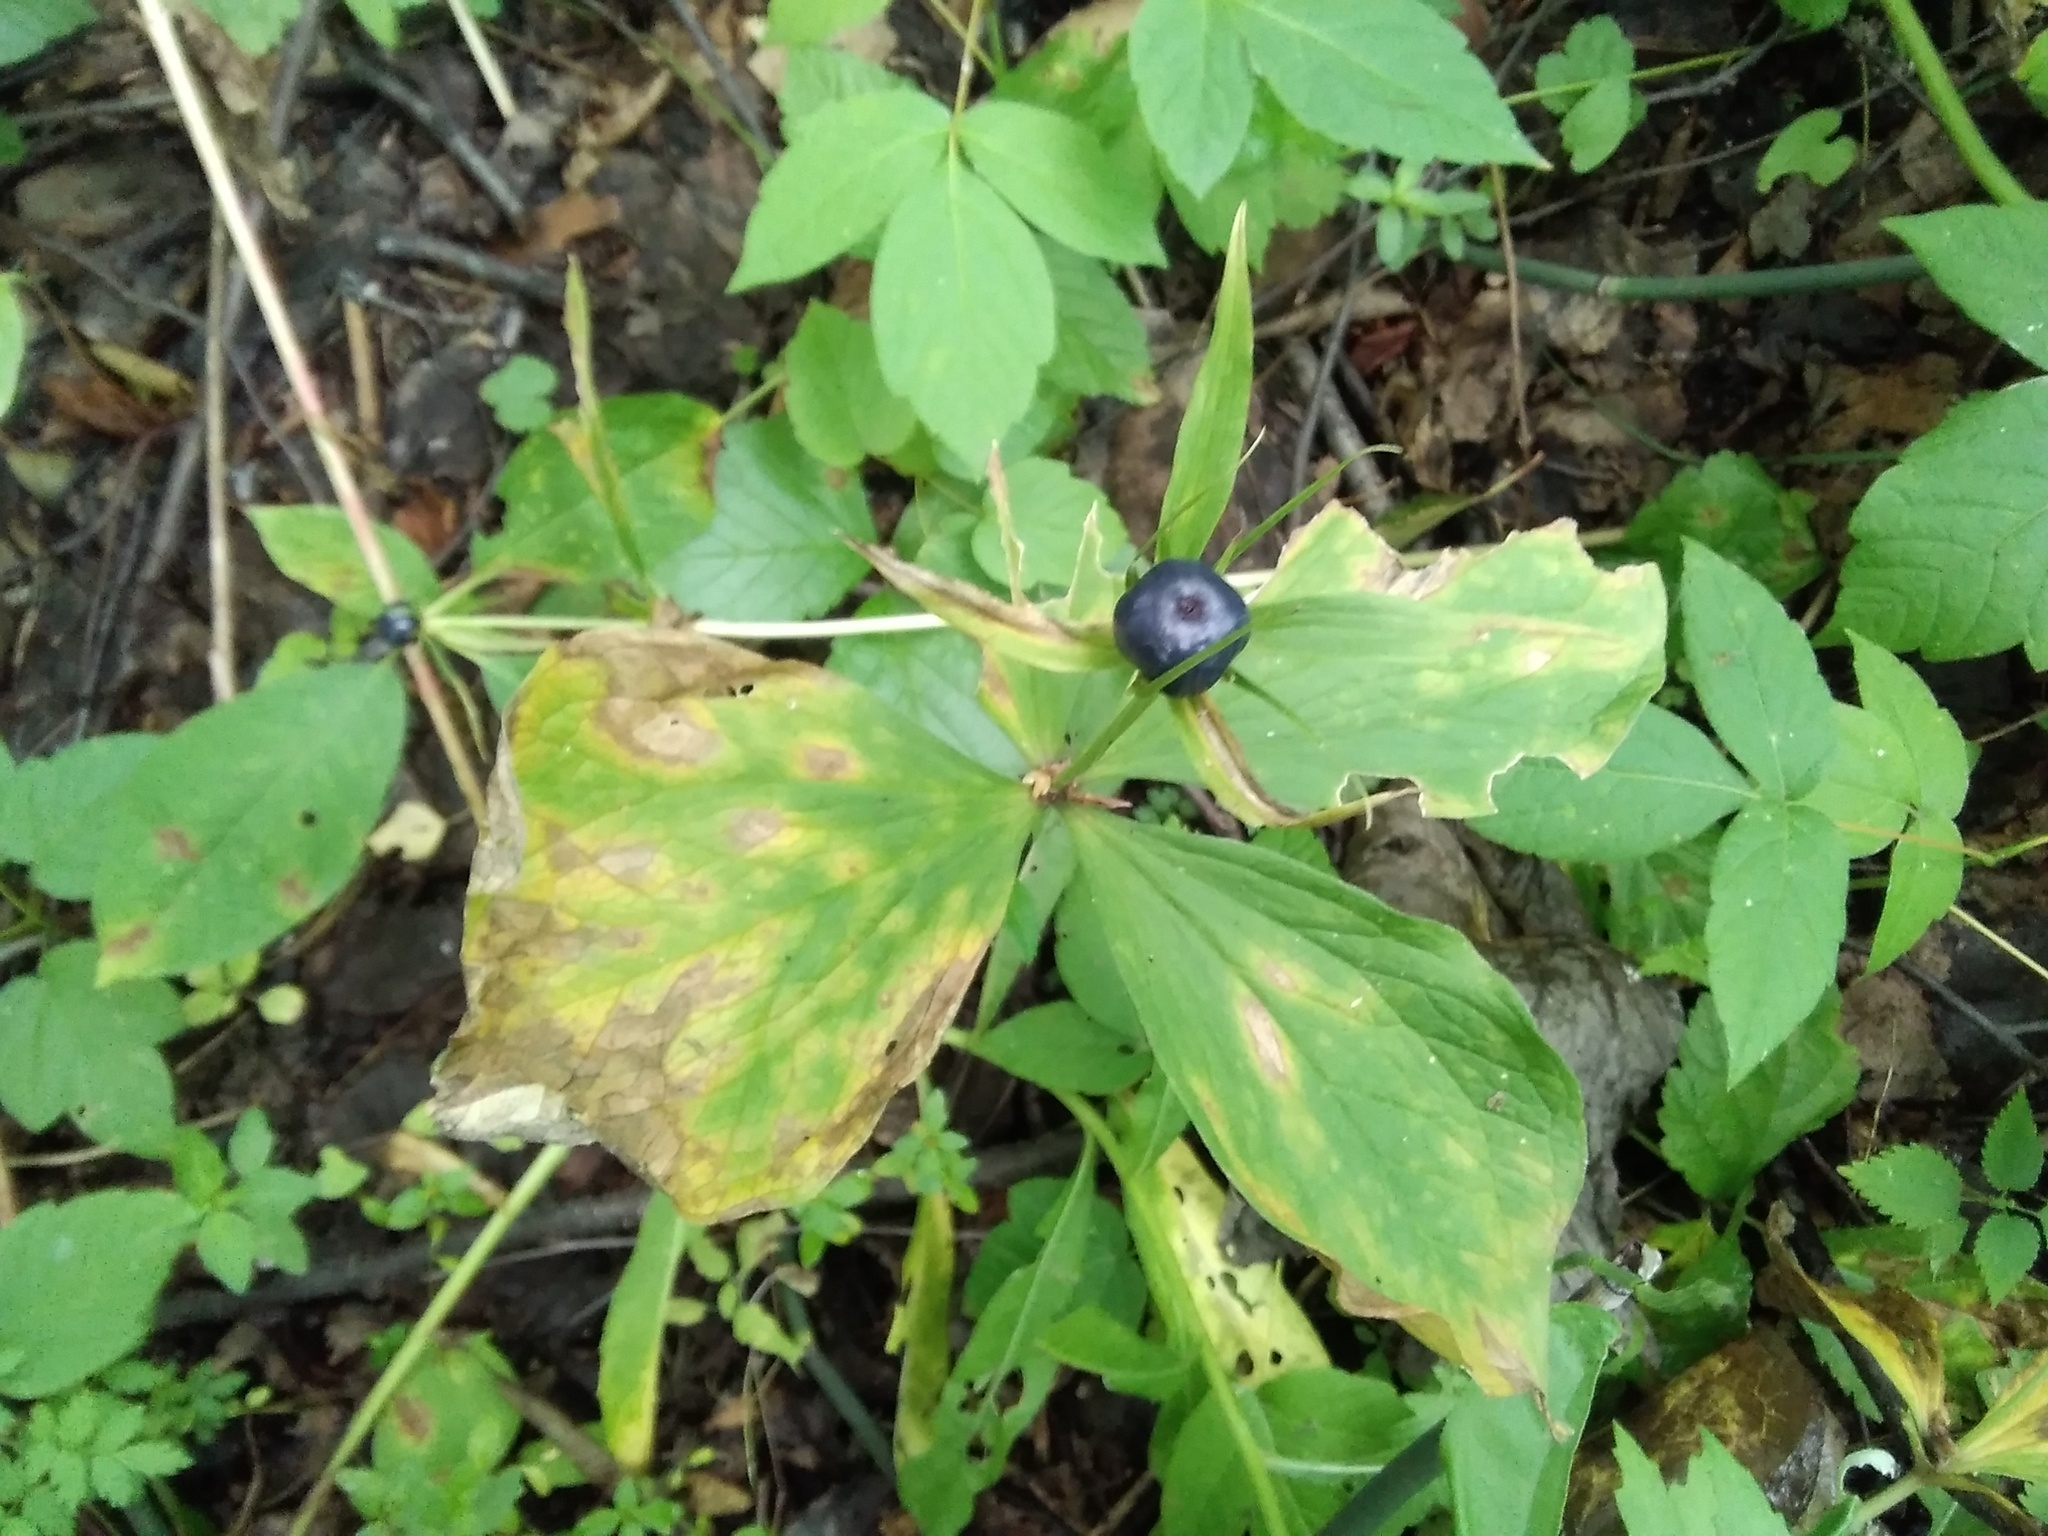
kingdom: Plantae
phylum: Tracheophyta
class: Liliopsida
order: Liliales
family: Melanthiaceae
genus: Paris
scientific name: Paris quadrifolia
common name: Herb-paris
